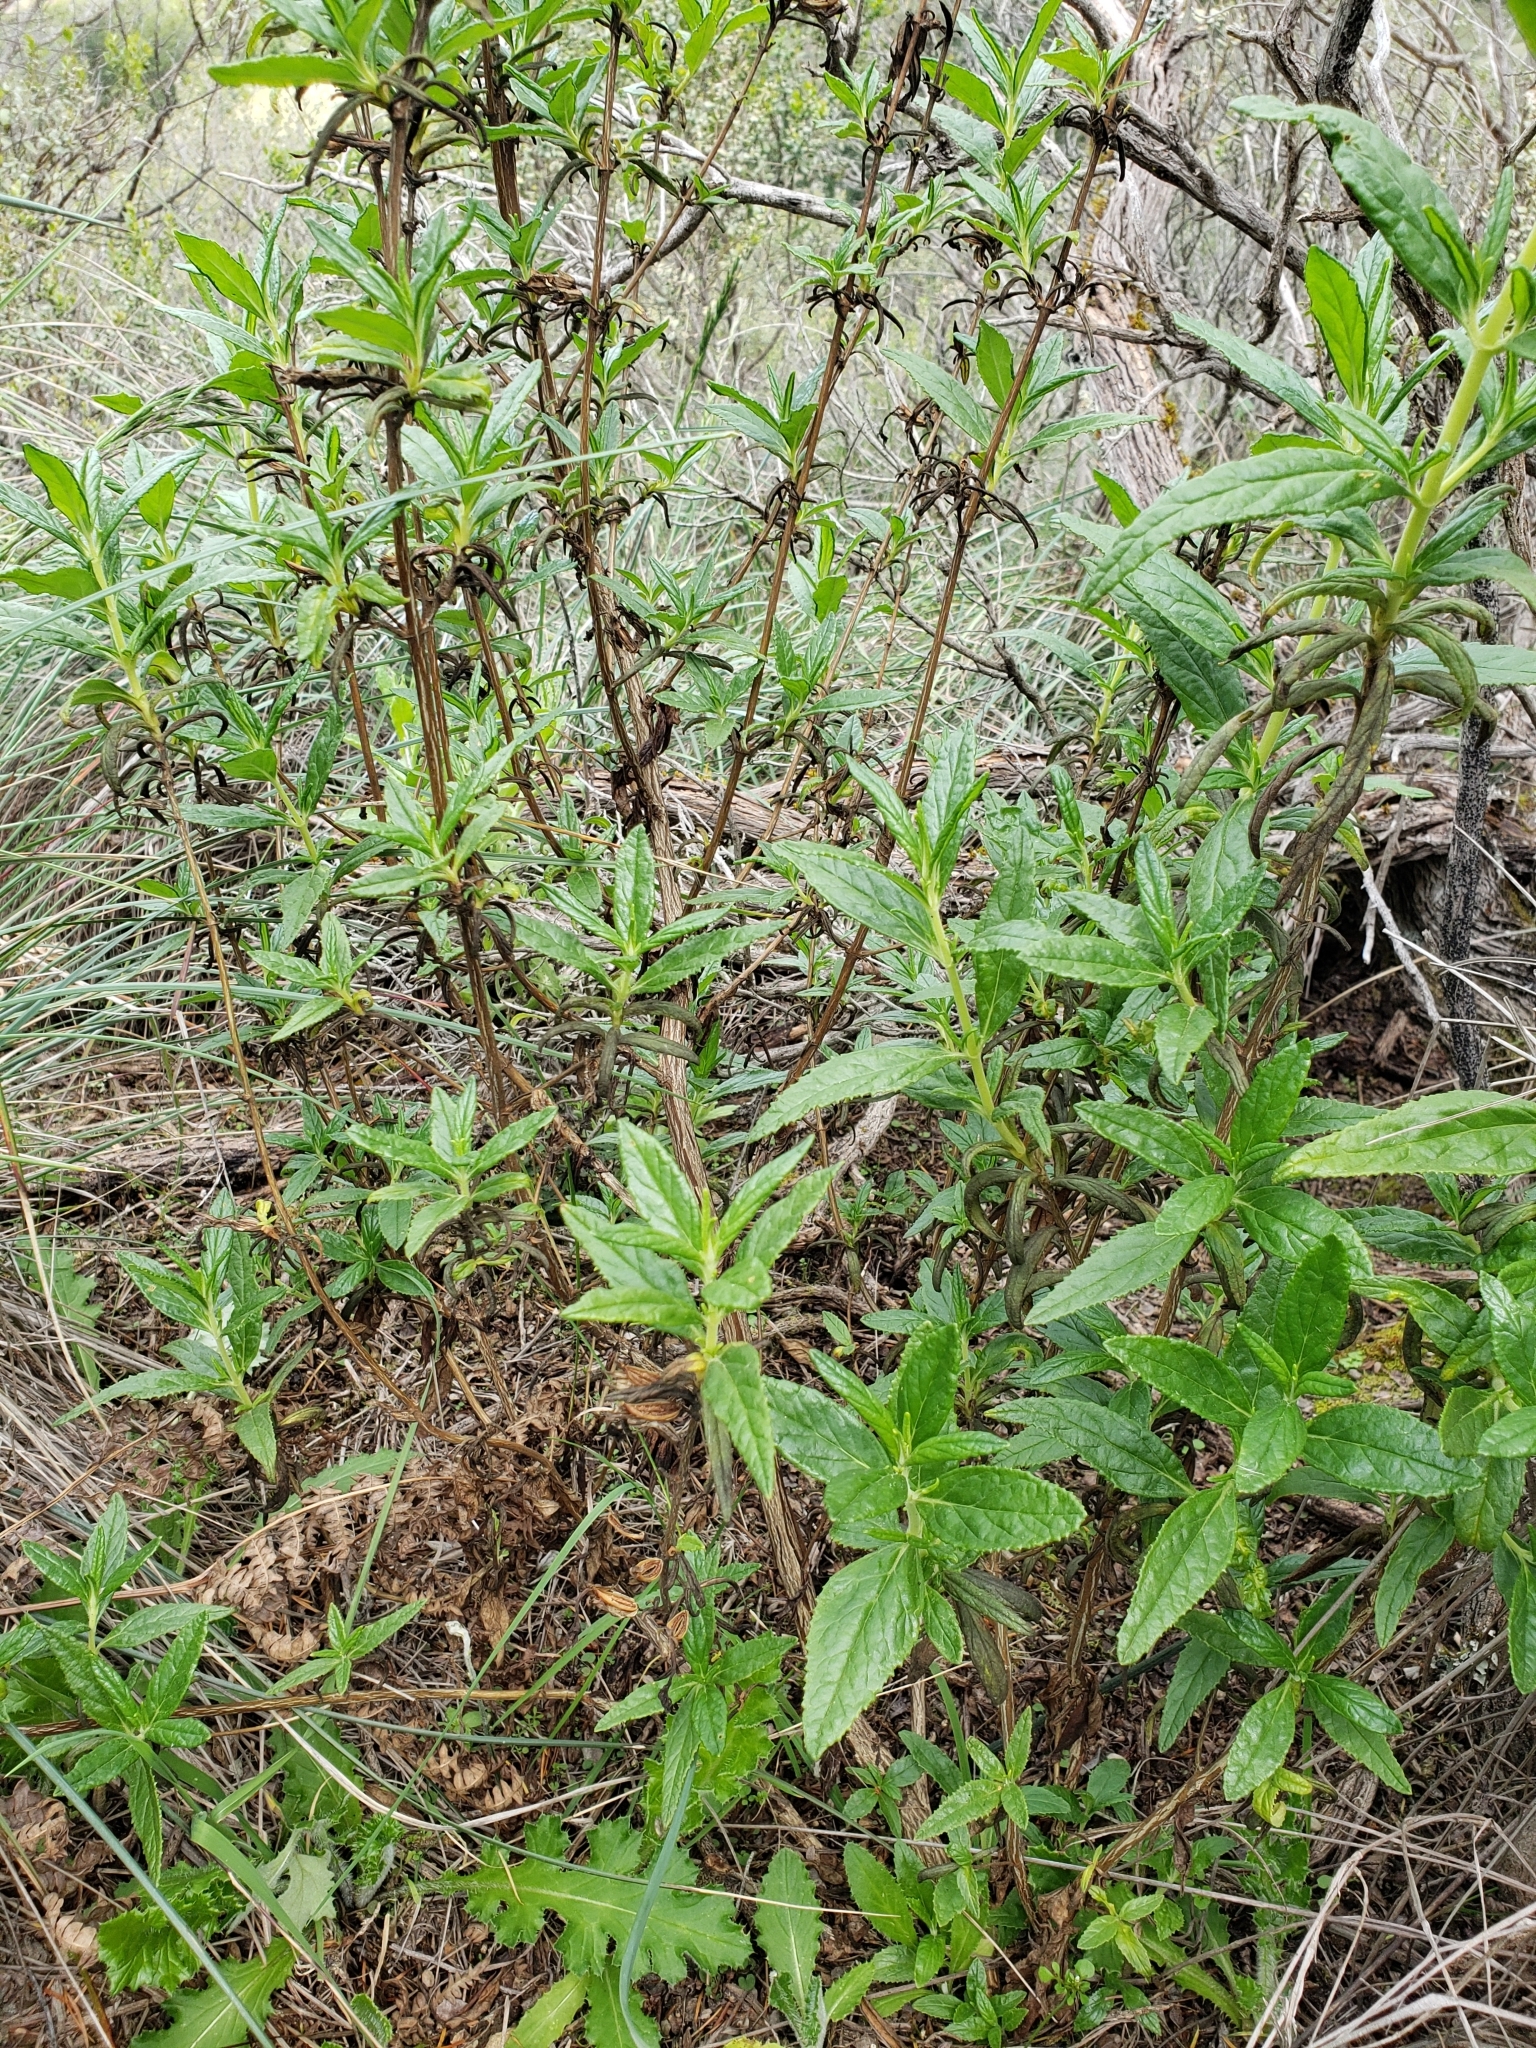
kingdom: Plantae
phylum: Tracheophyta
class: Magnoliopsida
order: Lamiales
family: Phrymaceae
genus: Diplacus
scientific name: Diplacus aurantiacus
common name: Bush monkey-flower
